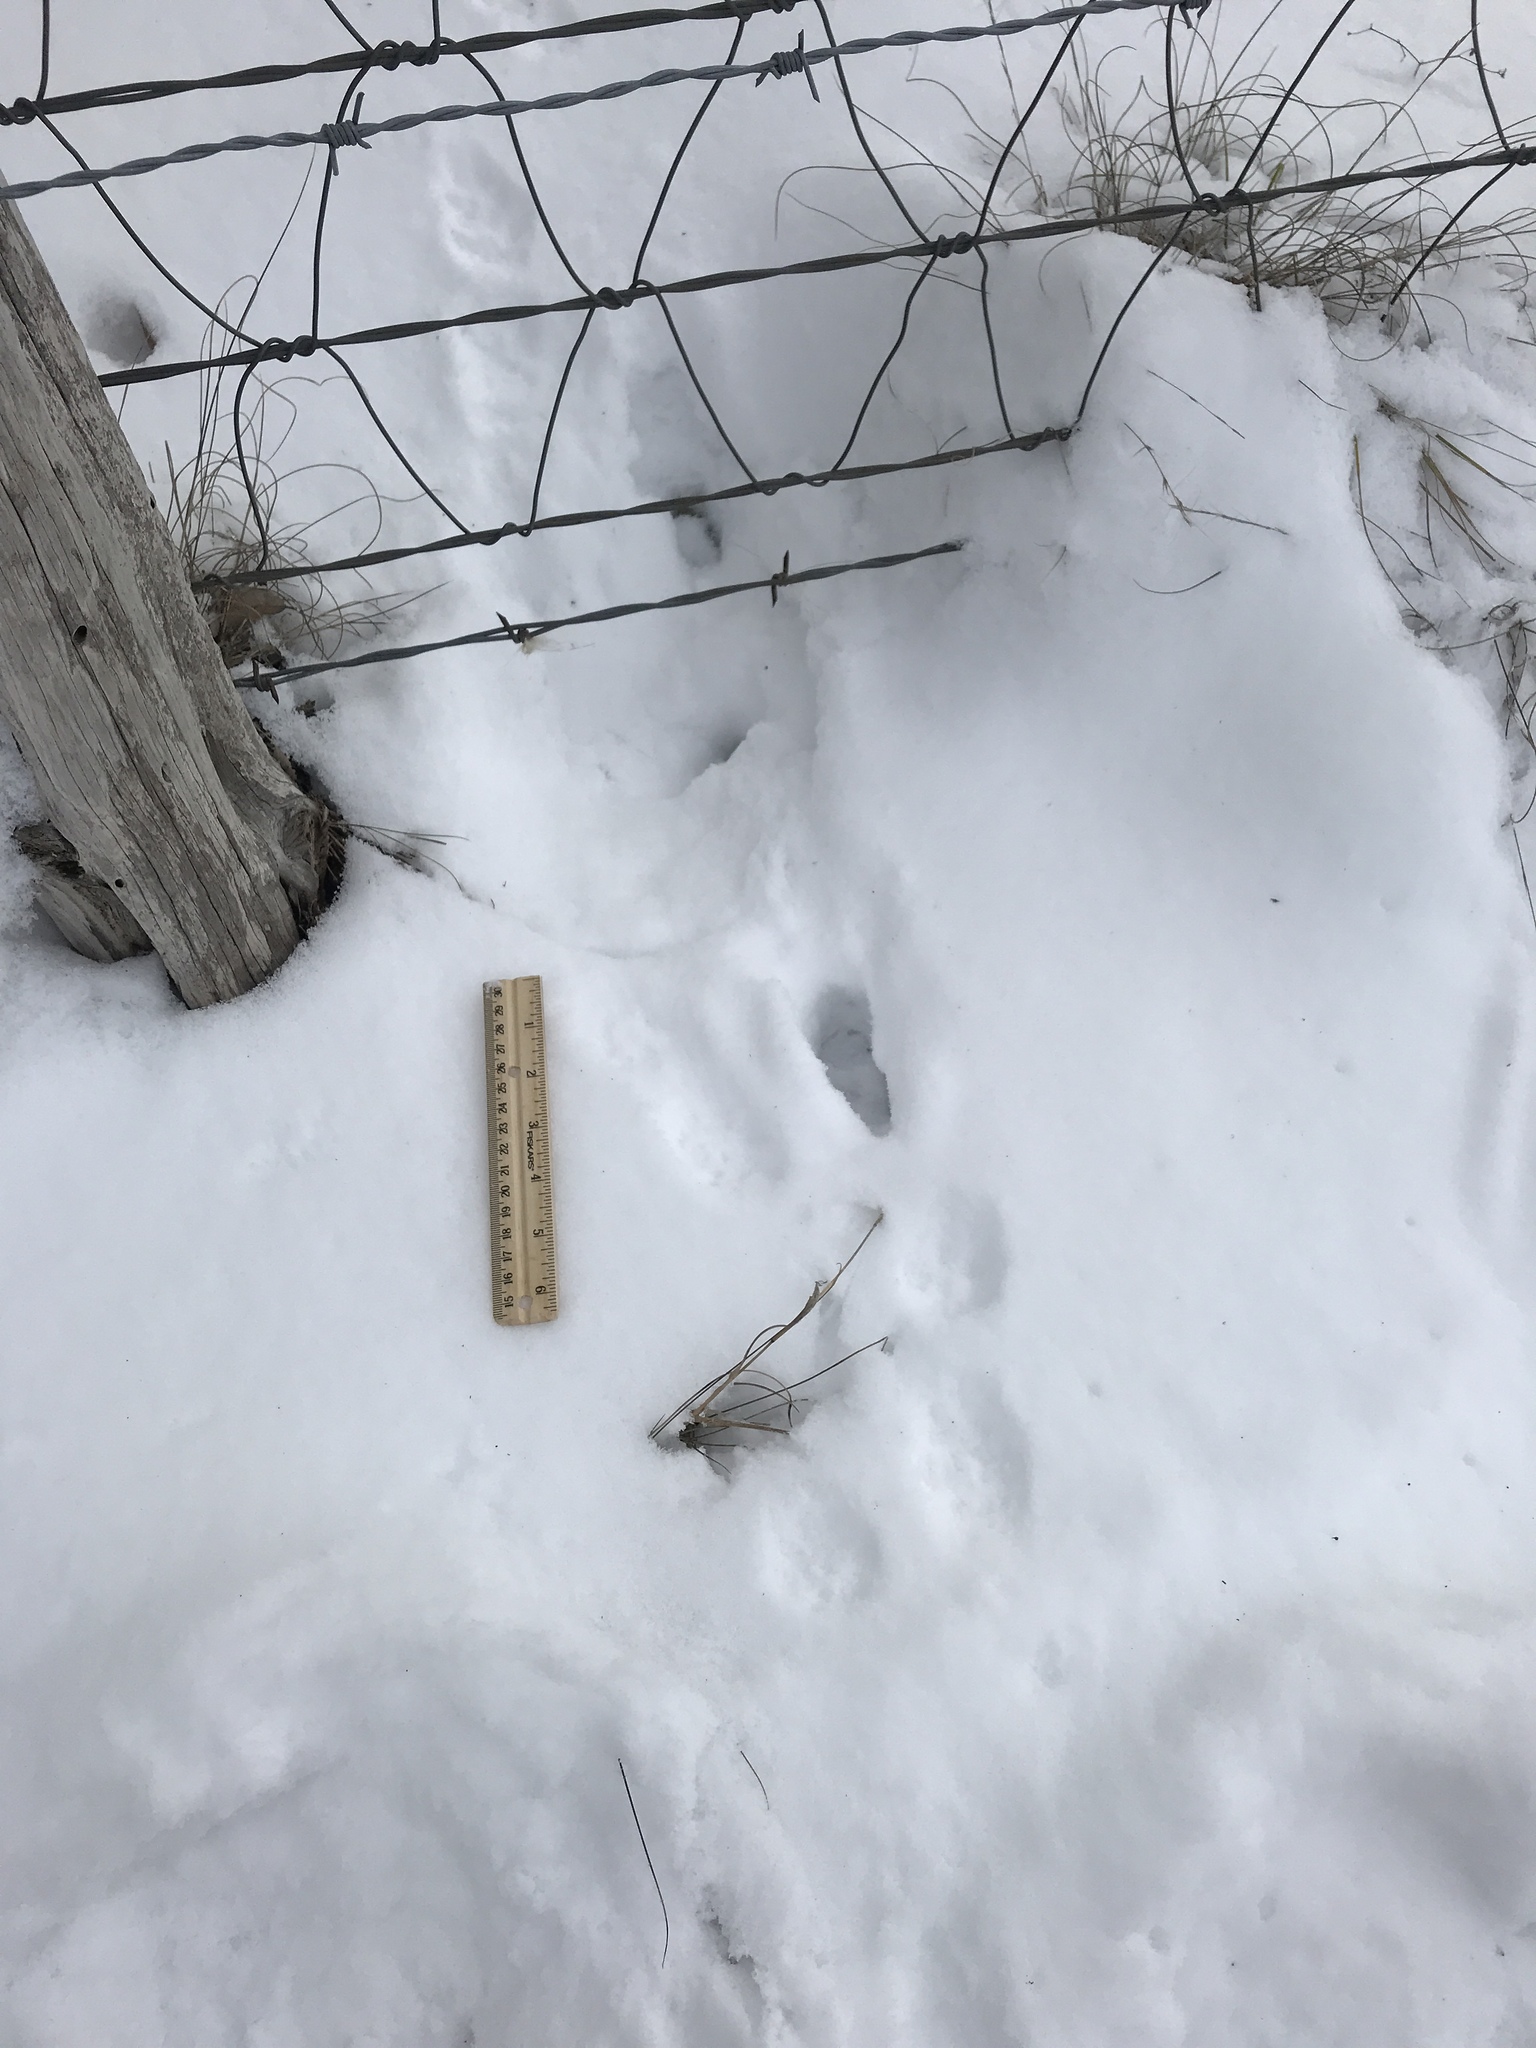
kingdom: Animalia
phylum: Chordata
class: Mammalia
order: Carnivora
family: Canidae
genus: Urocyon
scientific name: Urocyon cinereoargenteus
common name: Gray fox
